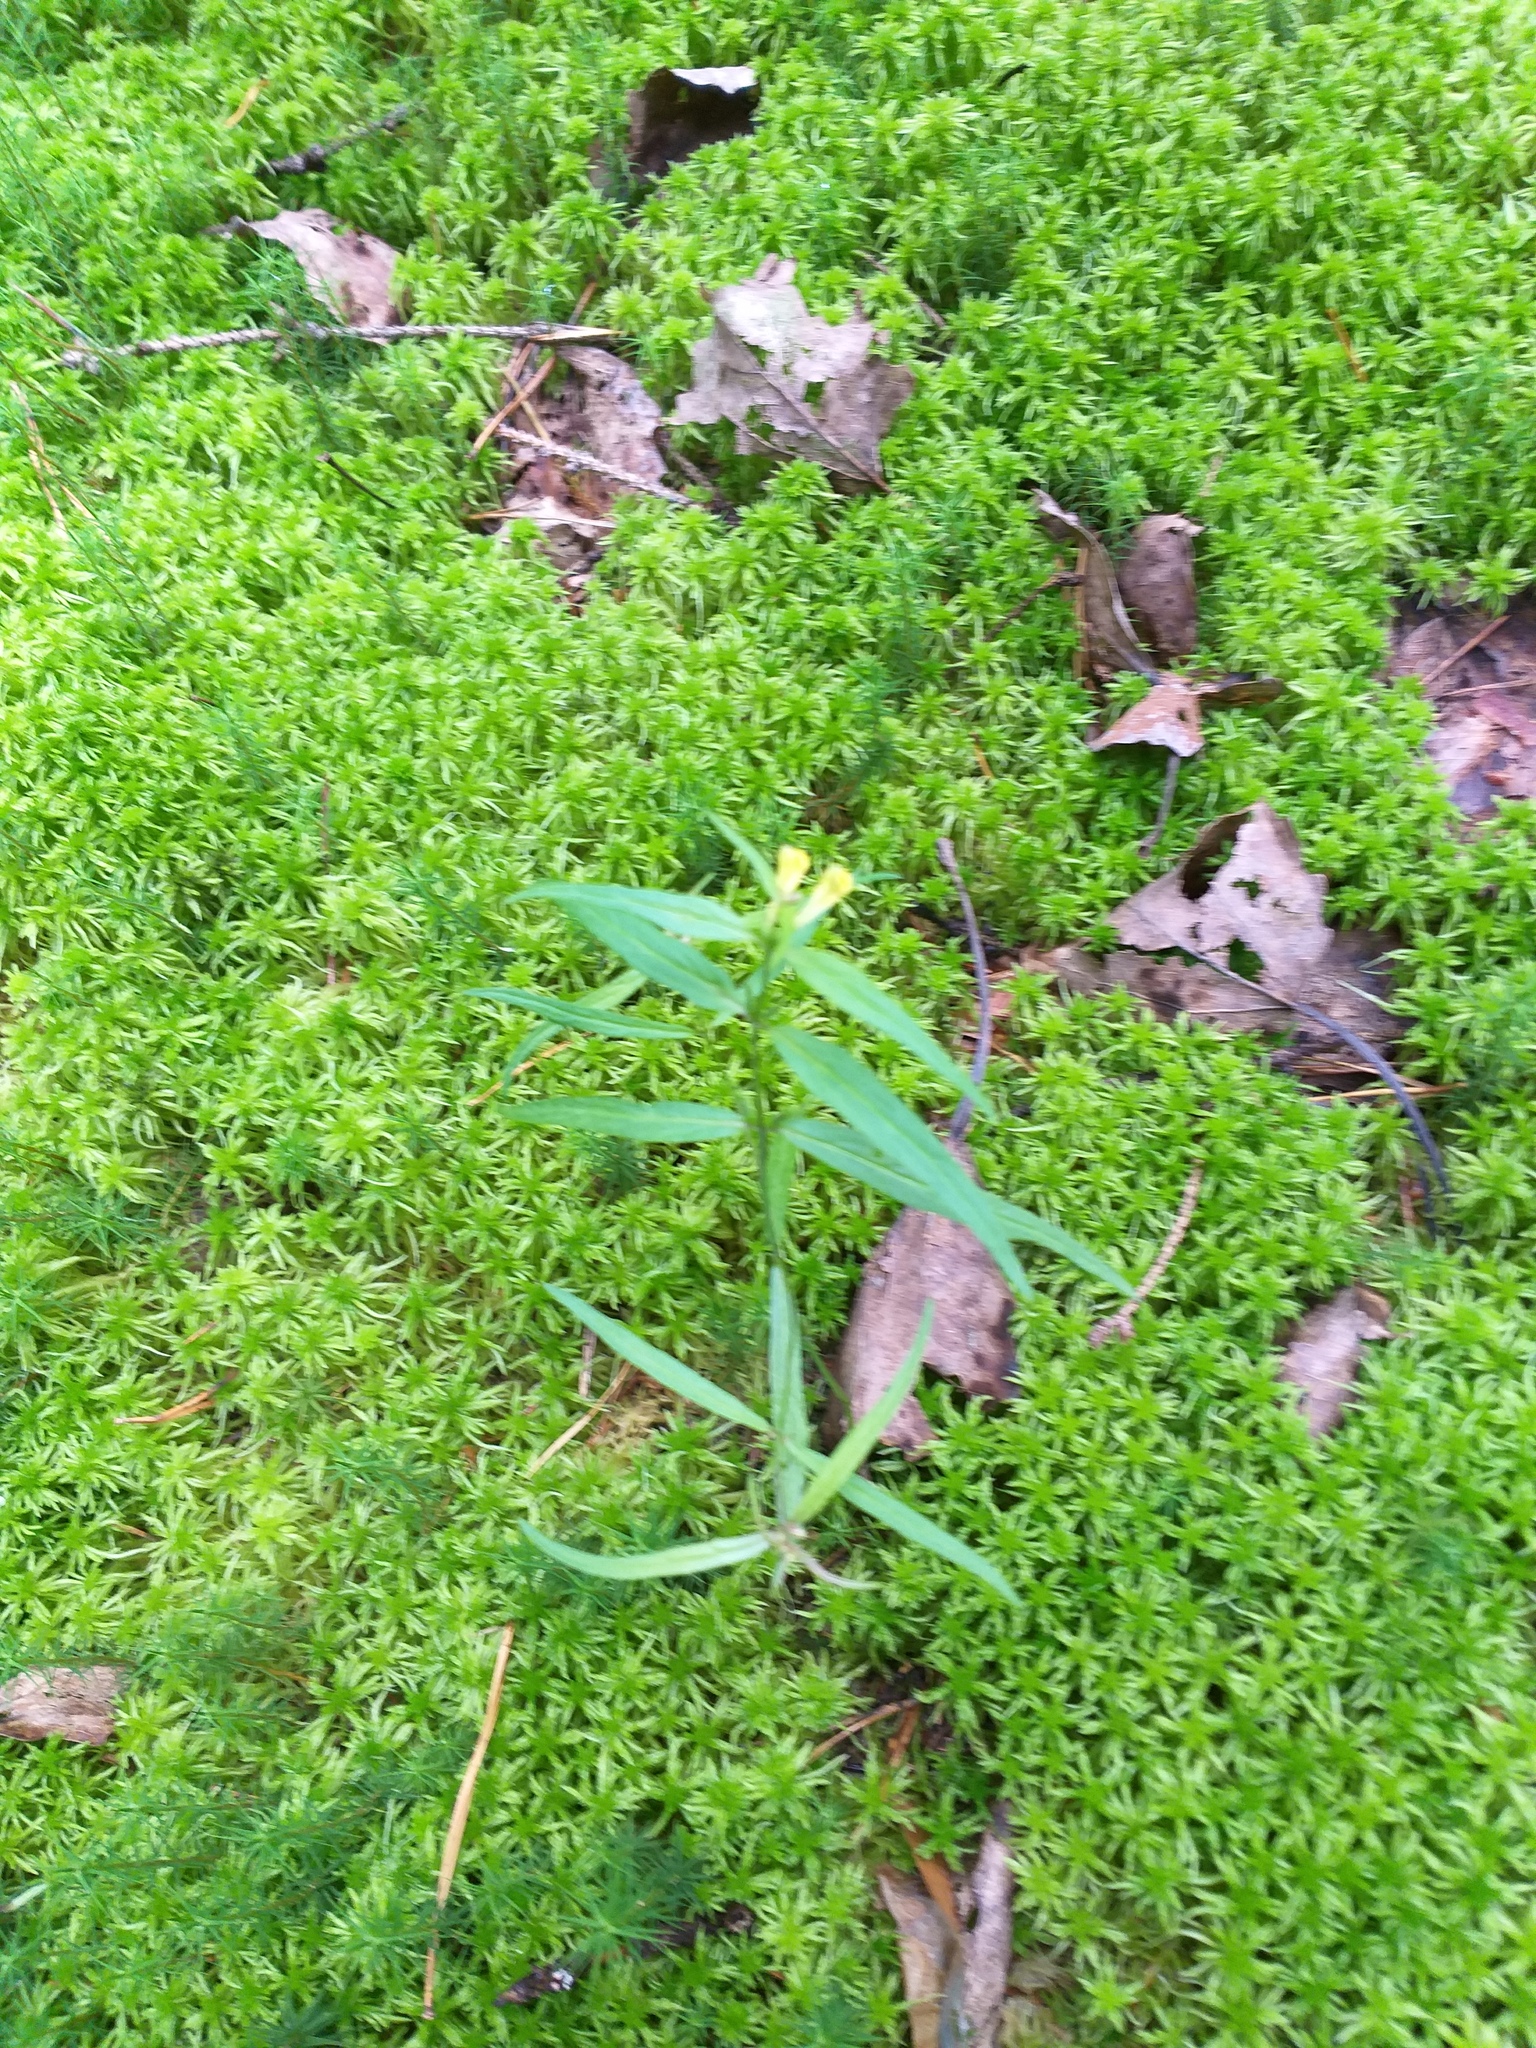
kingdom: Plantae
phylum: Tracheophyta
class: Magnoliopsida
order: Lamiales
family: Orobanchaceae
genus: Melampyrum
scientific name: Melampyrum pratense
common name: Common cow-wheat
